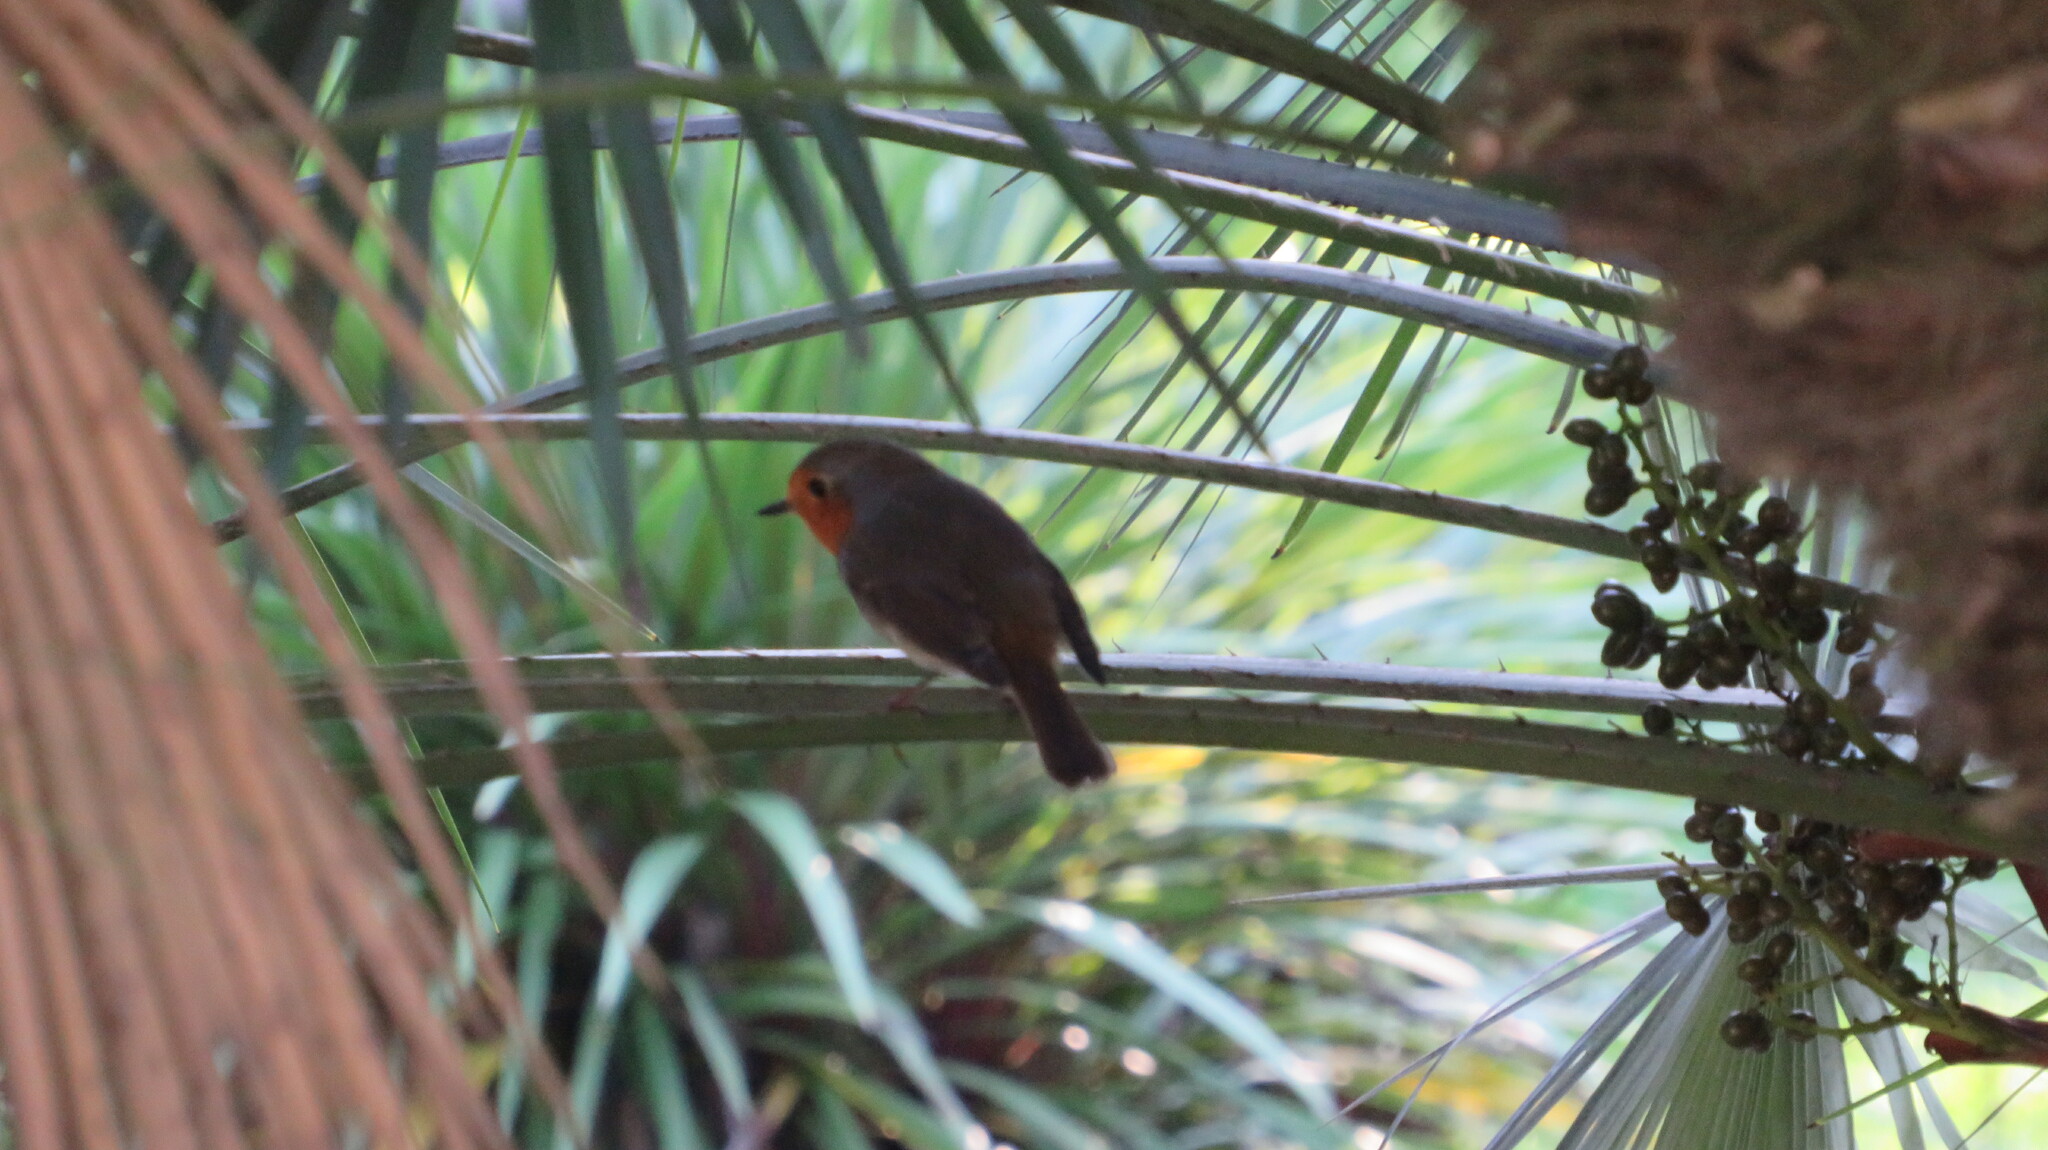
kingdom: Animalia
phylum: Chordata
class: Aves
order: Passeriformes
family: Muscicapidae
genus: Erithacus
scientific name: Erithacus rubecula
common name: European robin
